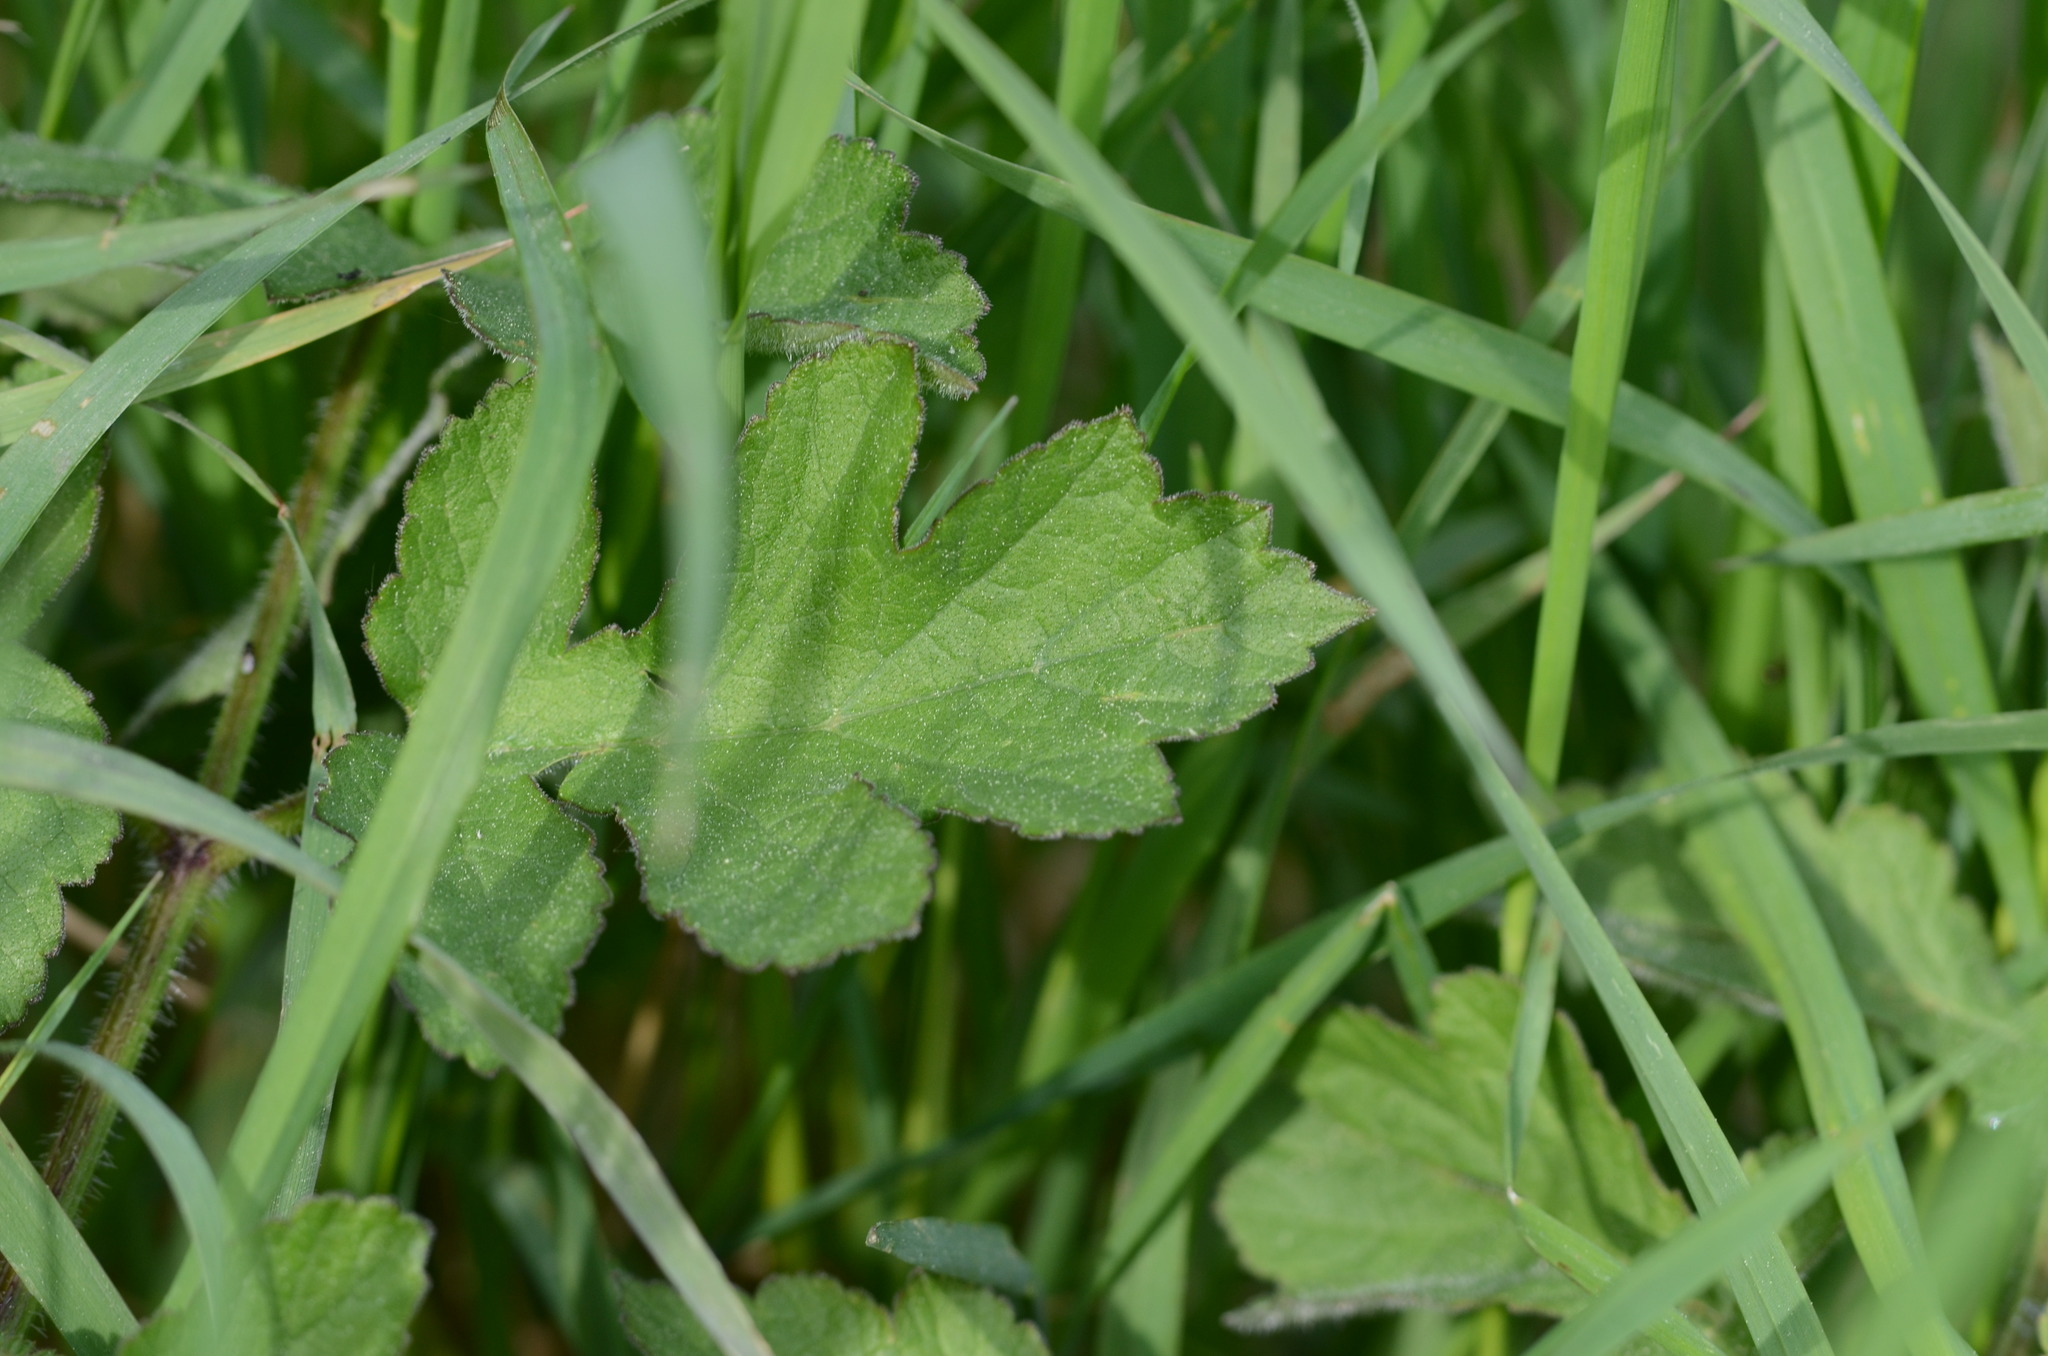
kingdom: Plantae
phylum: Tracheophyta
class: Magnoliopsida
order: Apiales
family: Apiaceae
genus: Heracleum
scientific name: Heracleum sphondylium
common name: Hogweed
